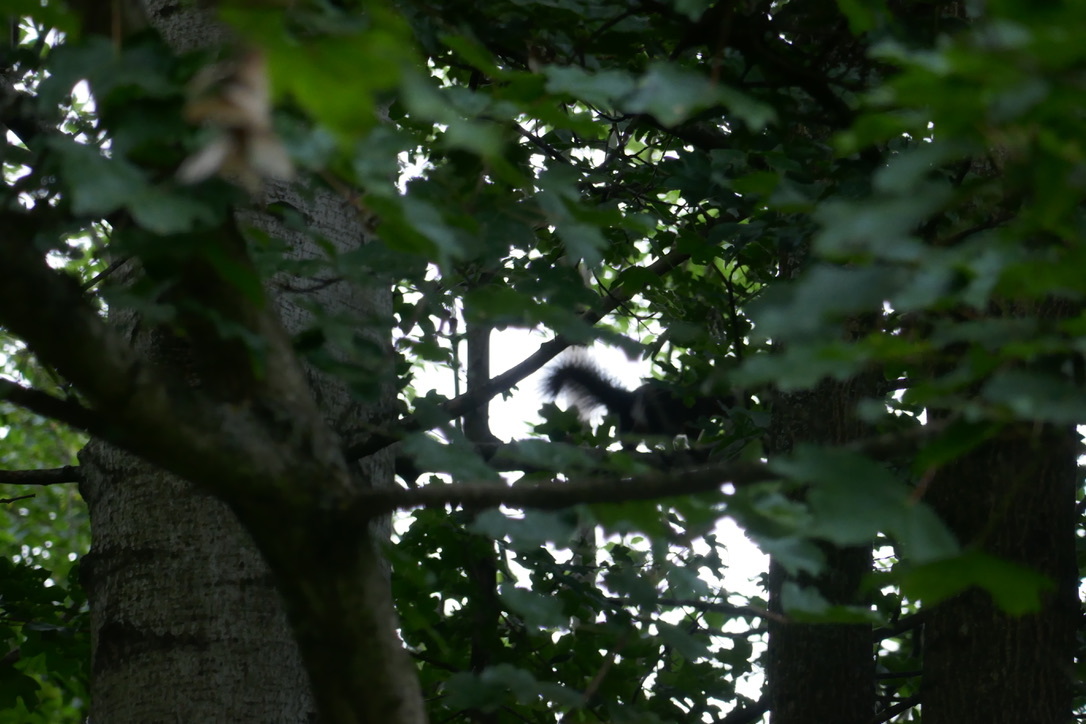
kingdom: Animalia
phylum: Chordata
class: Mammalia
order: Rodentia
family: Sciuridae
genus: Sciurus
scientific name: Sciurus vulgaris
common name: Eurasian red squirrel
